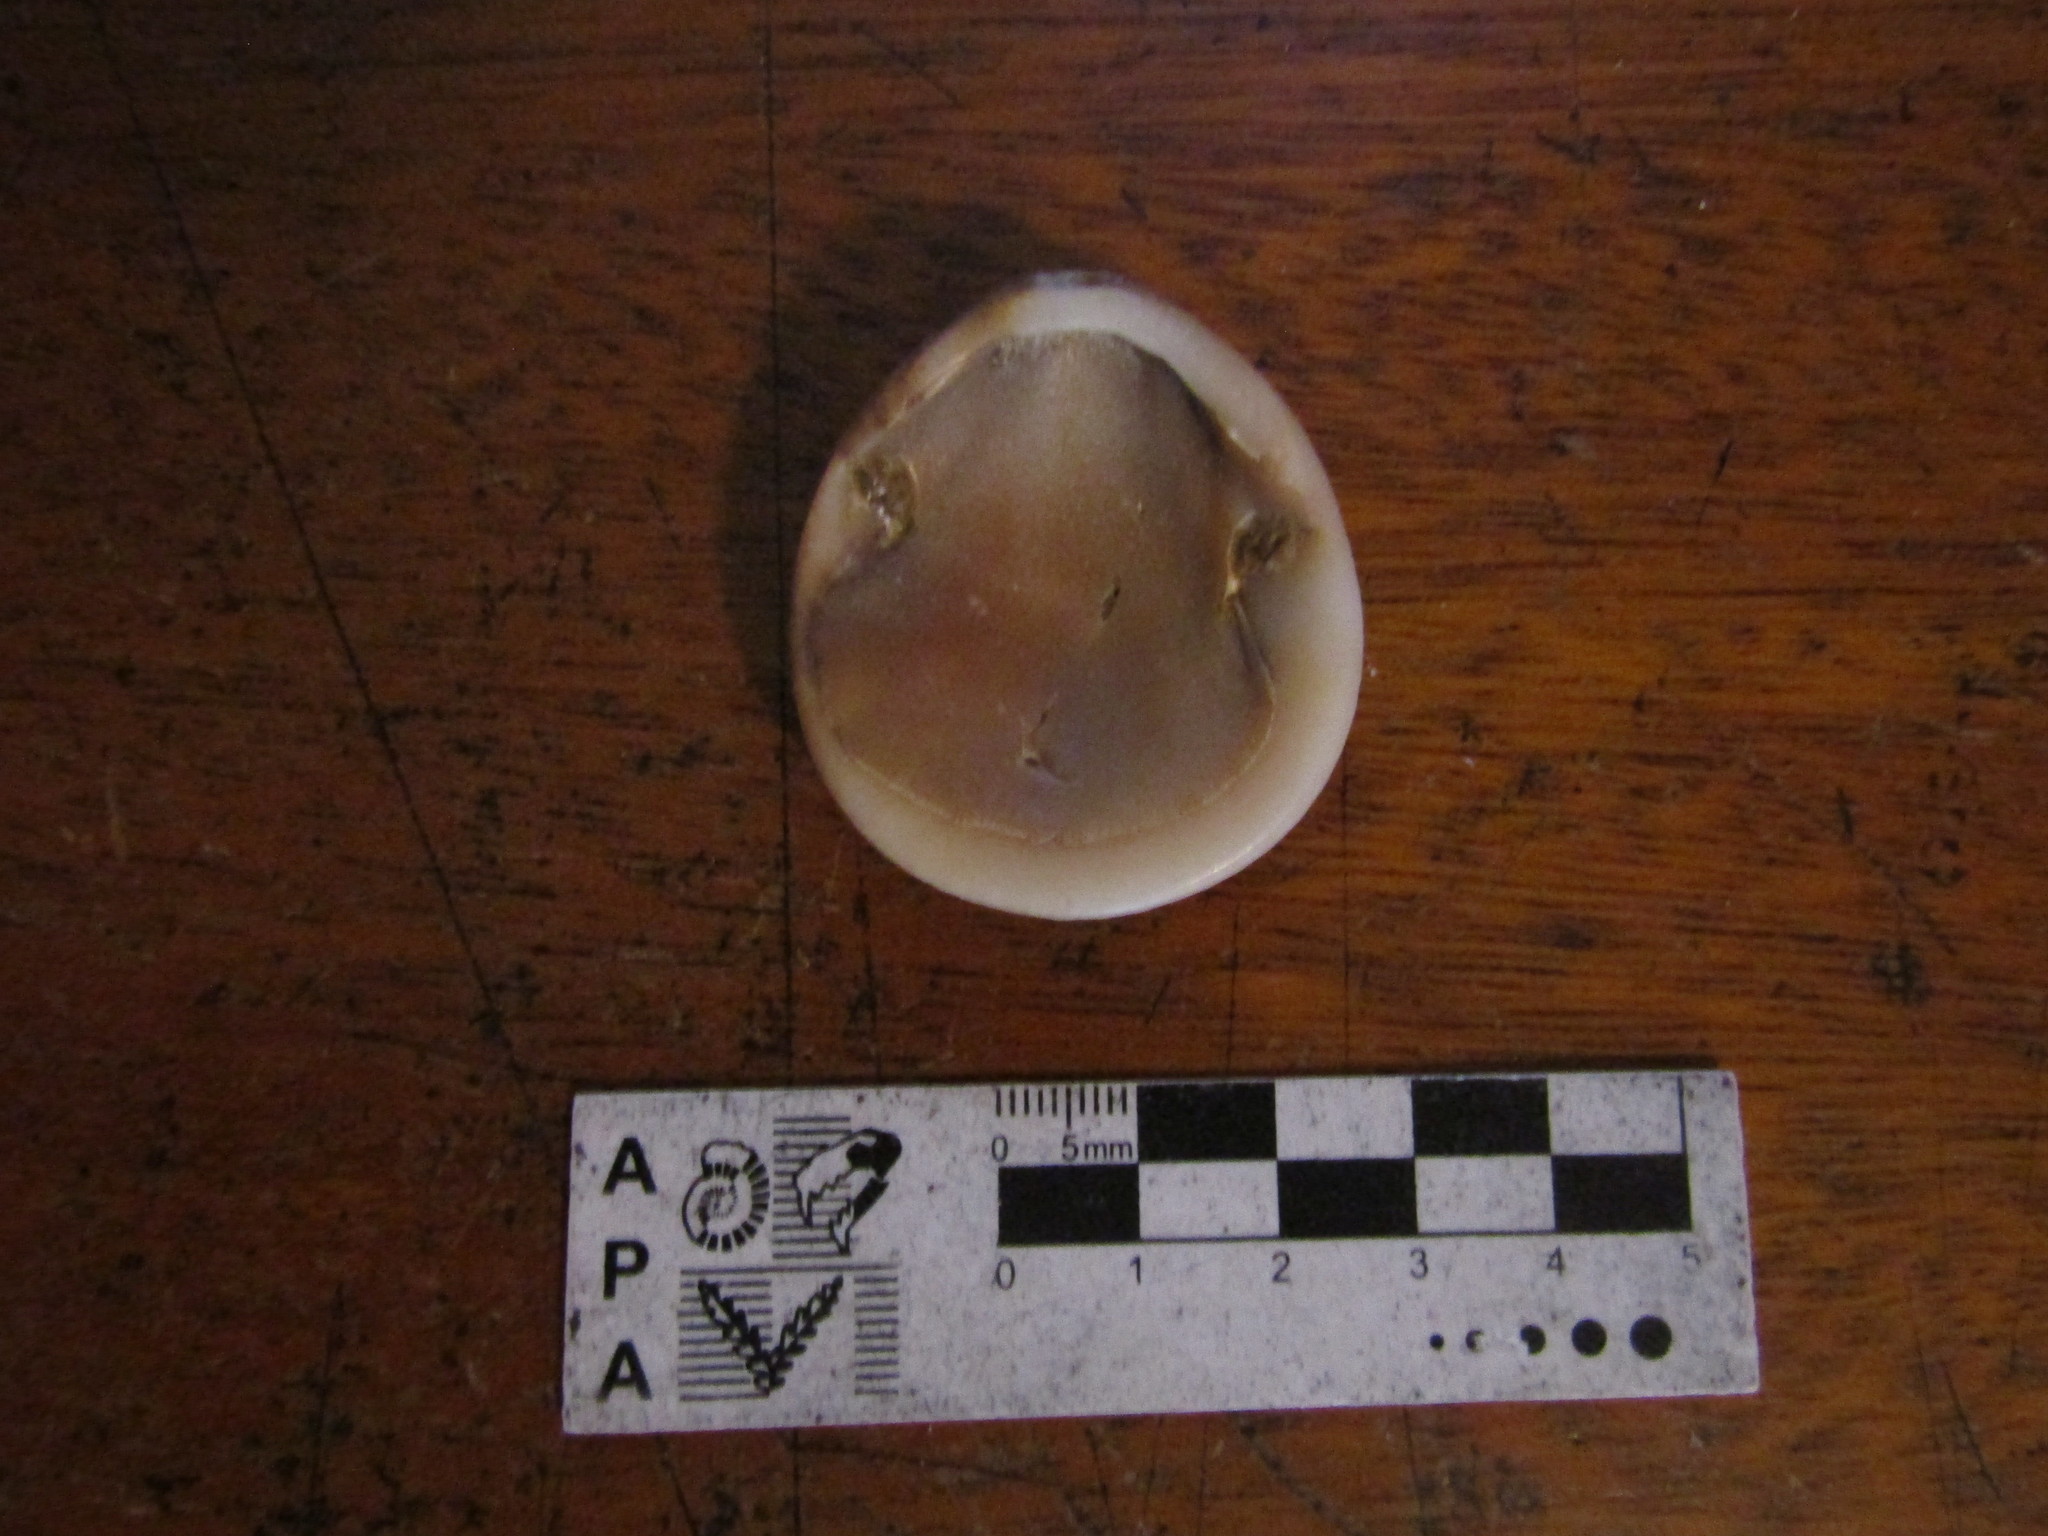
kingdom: Animalia
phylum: Mollusca
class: Bivalvia
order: Arcida
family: Glycymerididae
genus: Glycymeris
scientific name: Glycymeris longior
